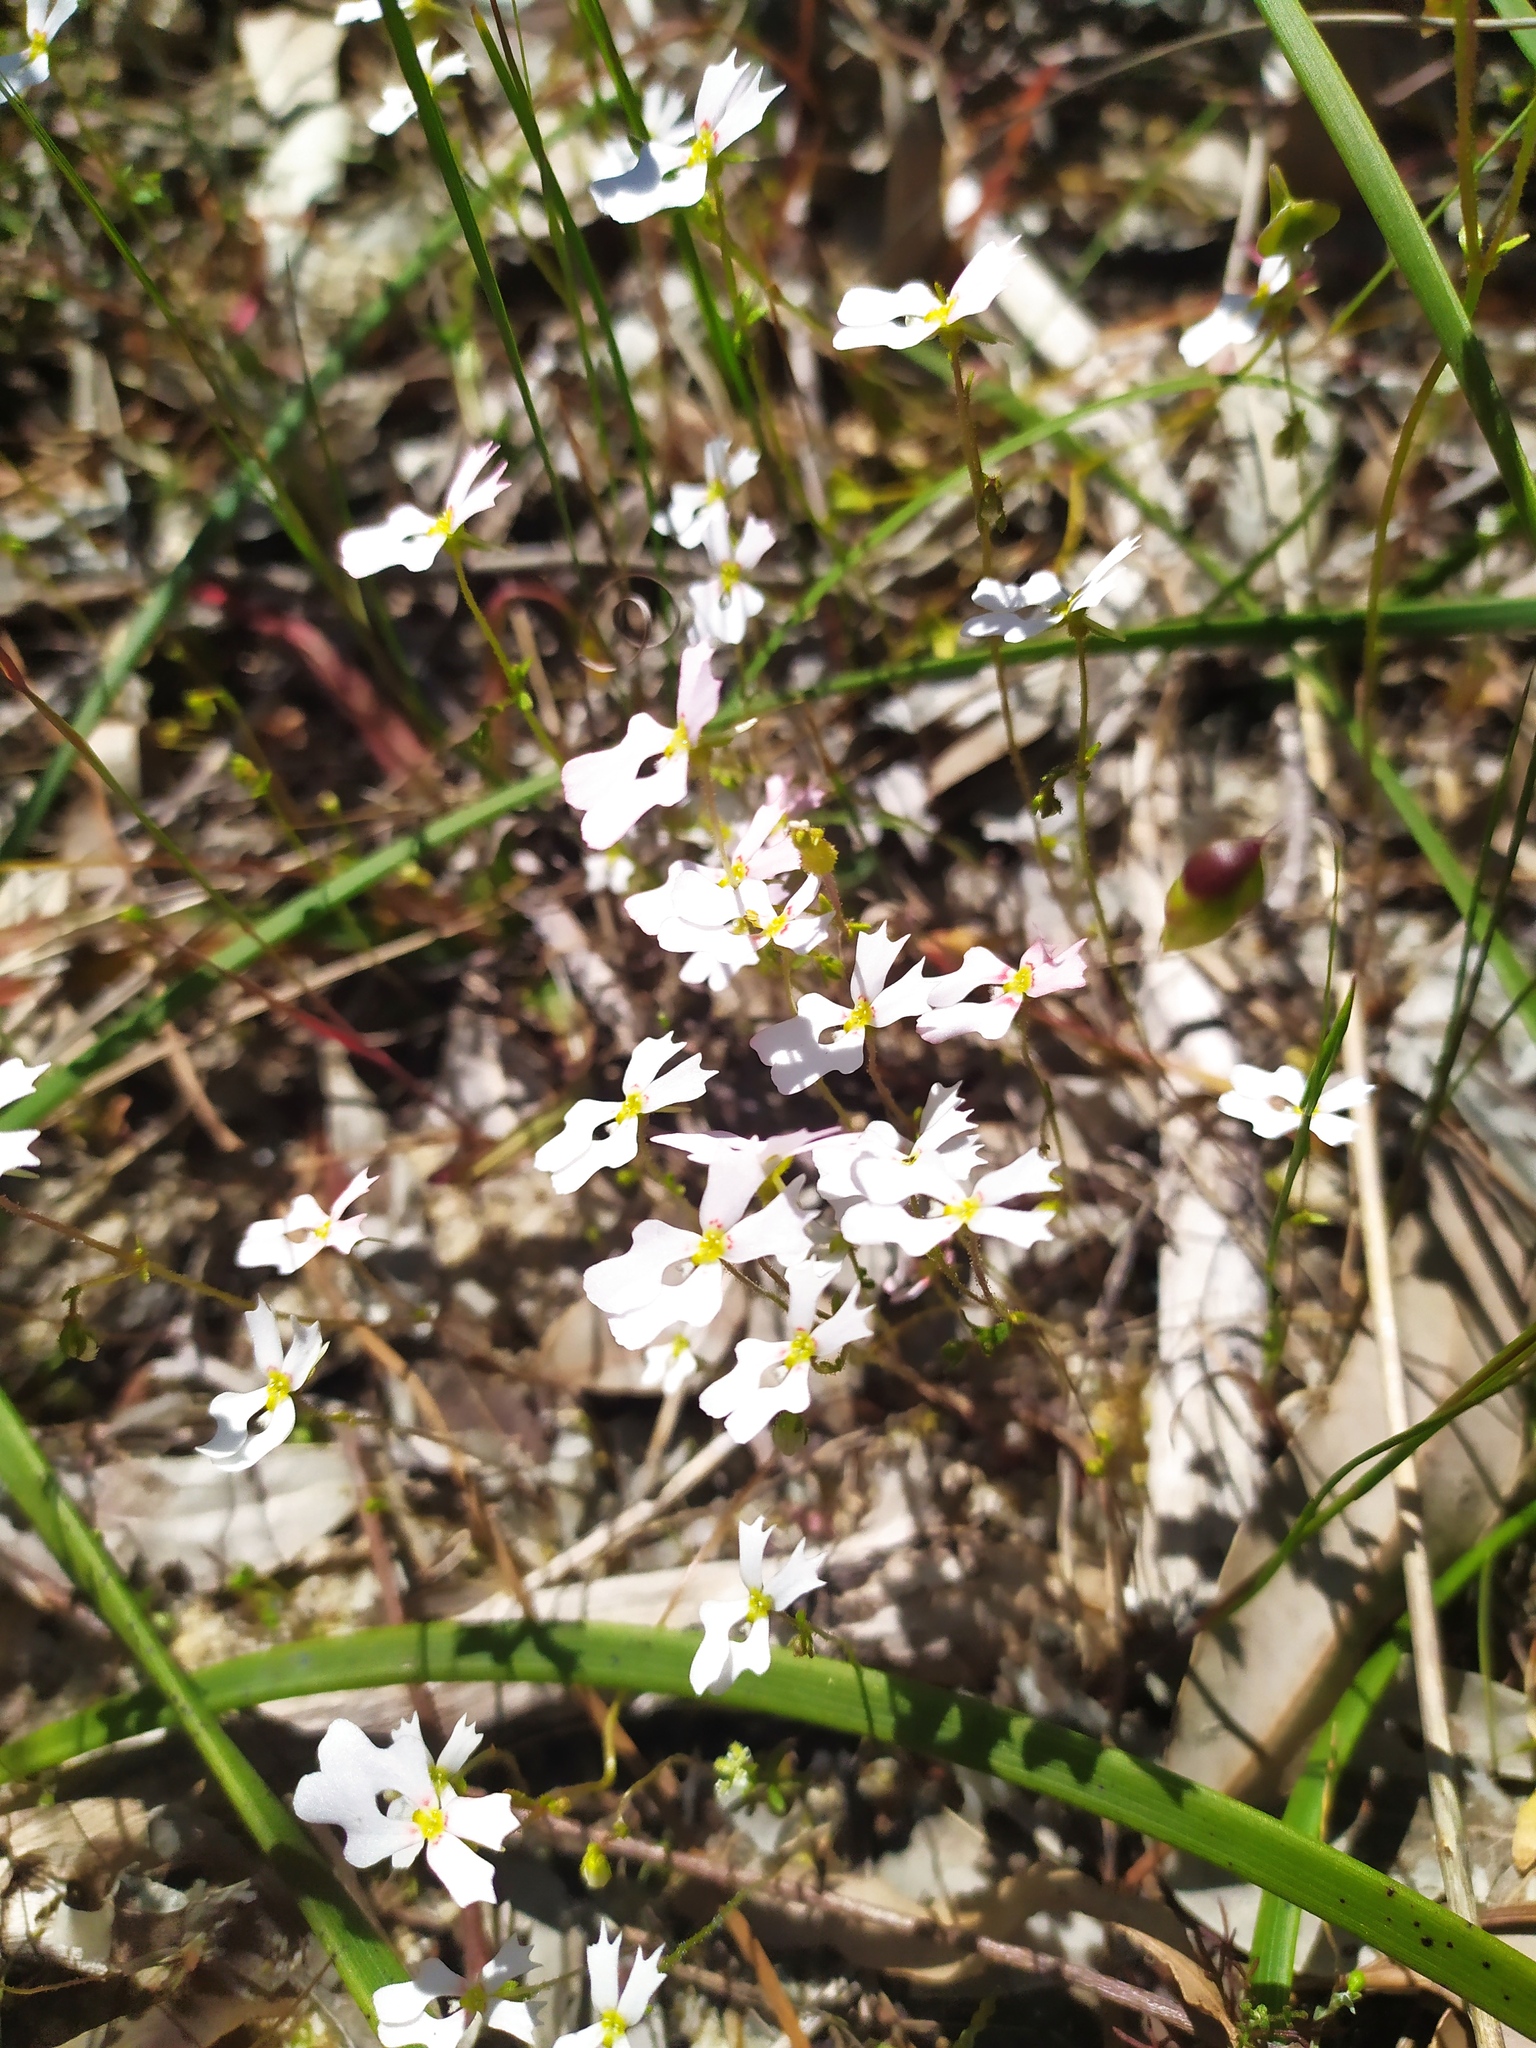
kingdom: Plantae
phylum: Tracheophyta
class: Magnoliopsida
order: Asterales
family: Stylidiaceae
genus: Stylidium
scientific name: Stylidium androsaceum
